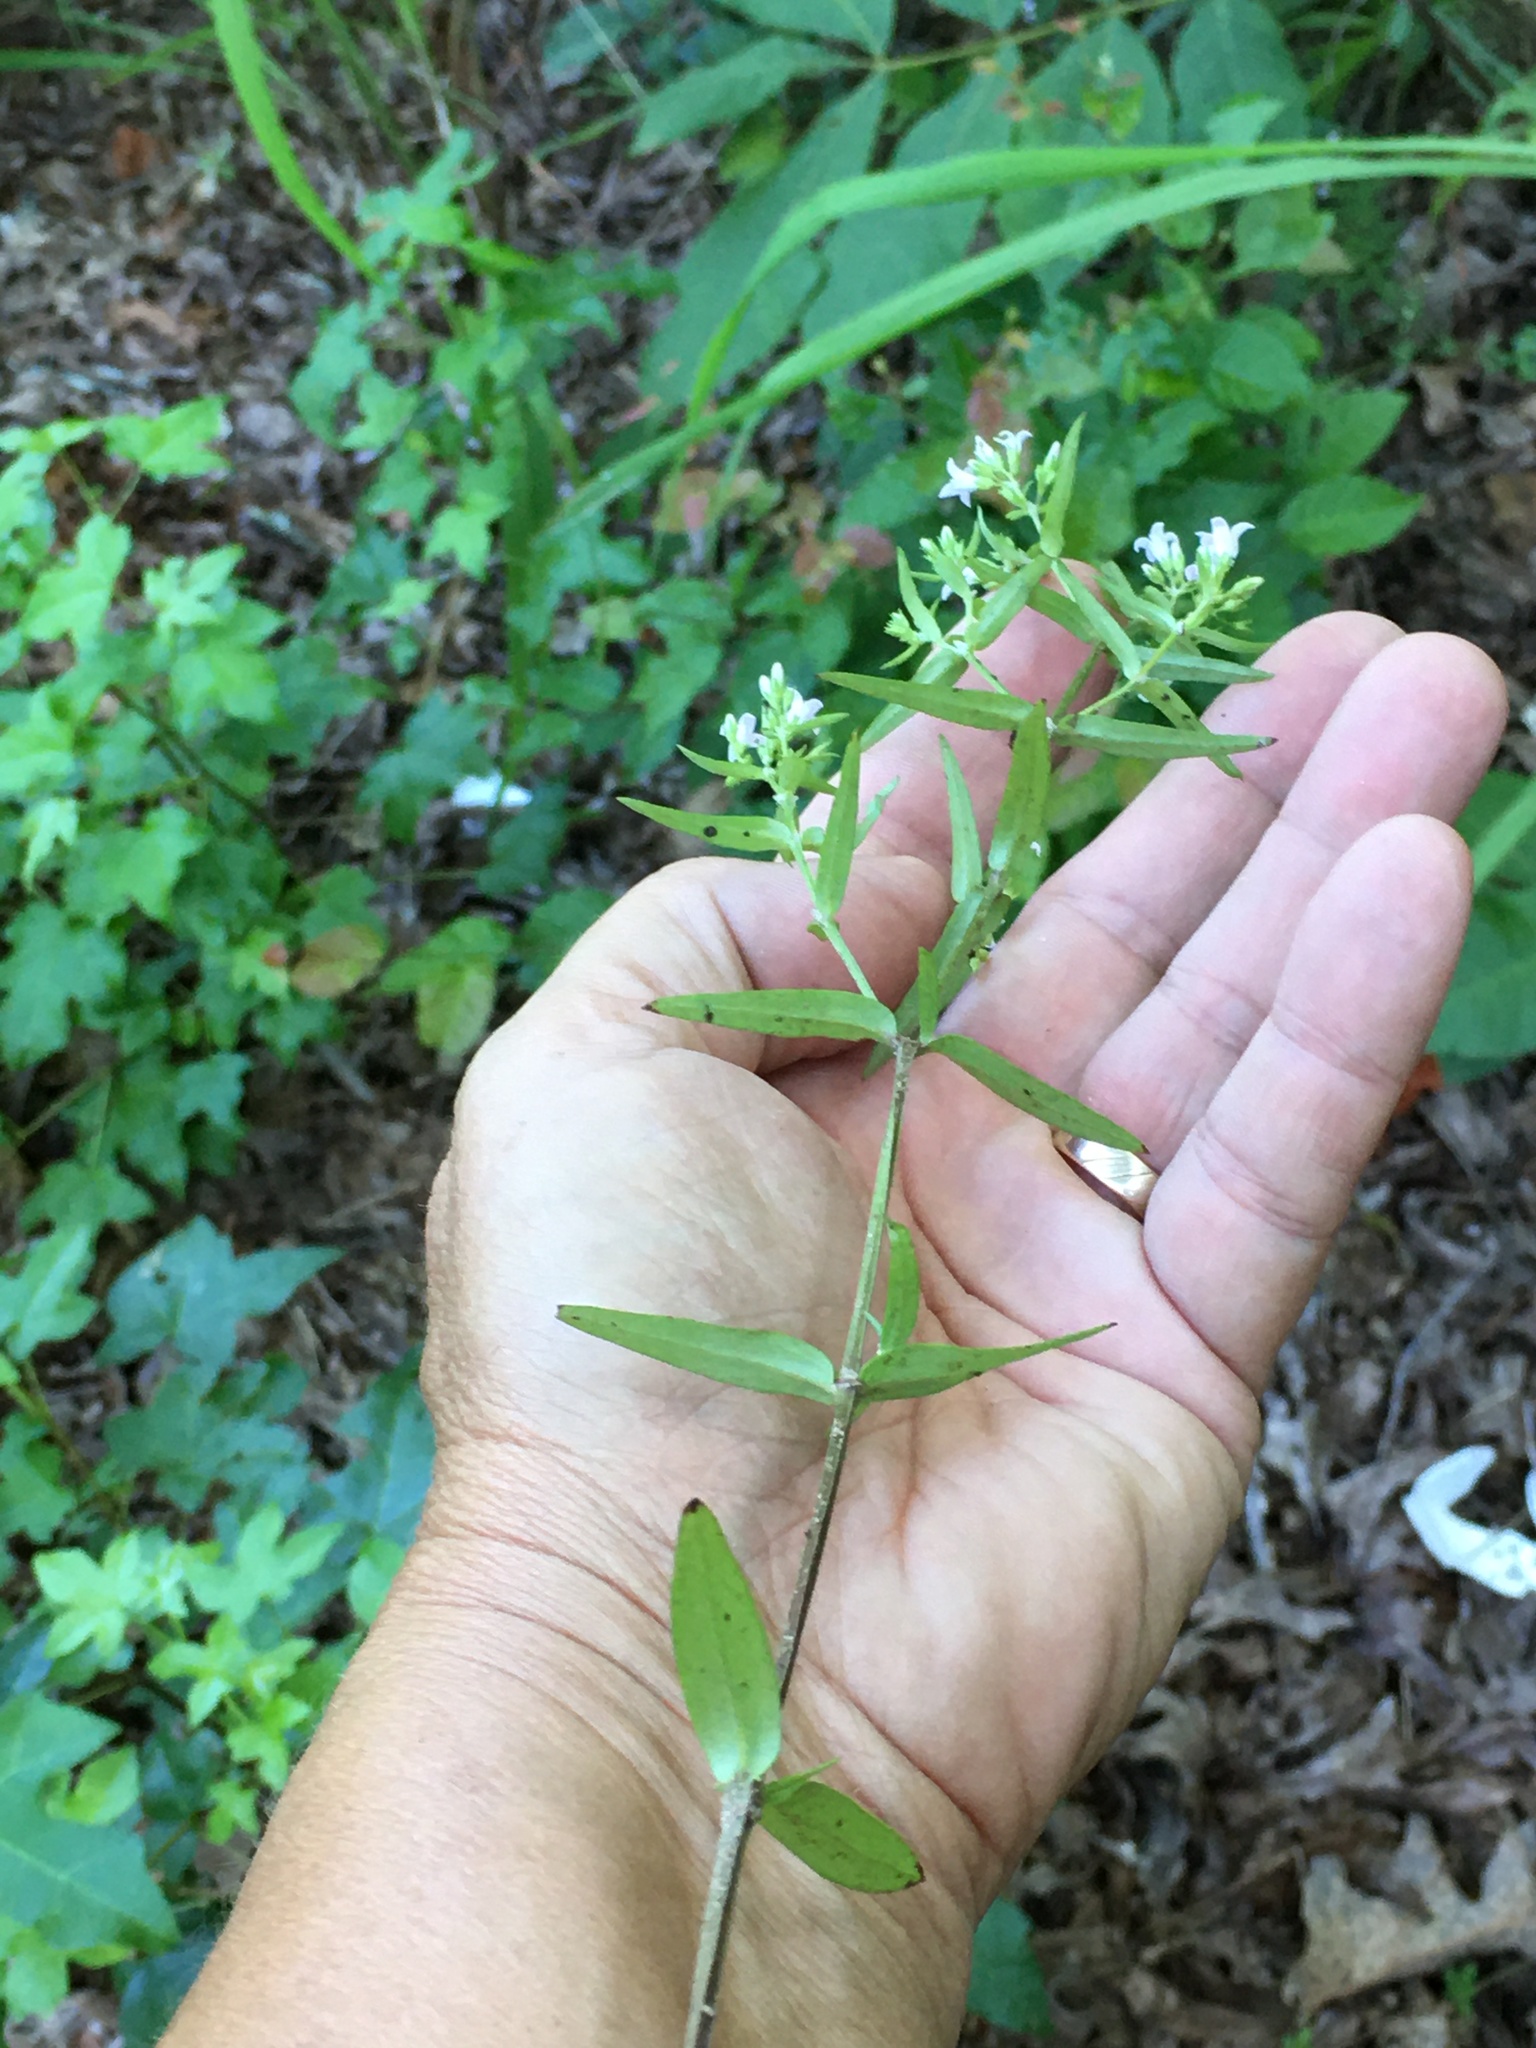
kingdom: Plantae
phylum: Tracheophyta
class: Magnoliopsida
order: Gentianales
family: Rubiaceae
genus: Houstonia
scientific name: Houstonia longifolia
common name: Long-leaved bluets
